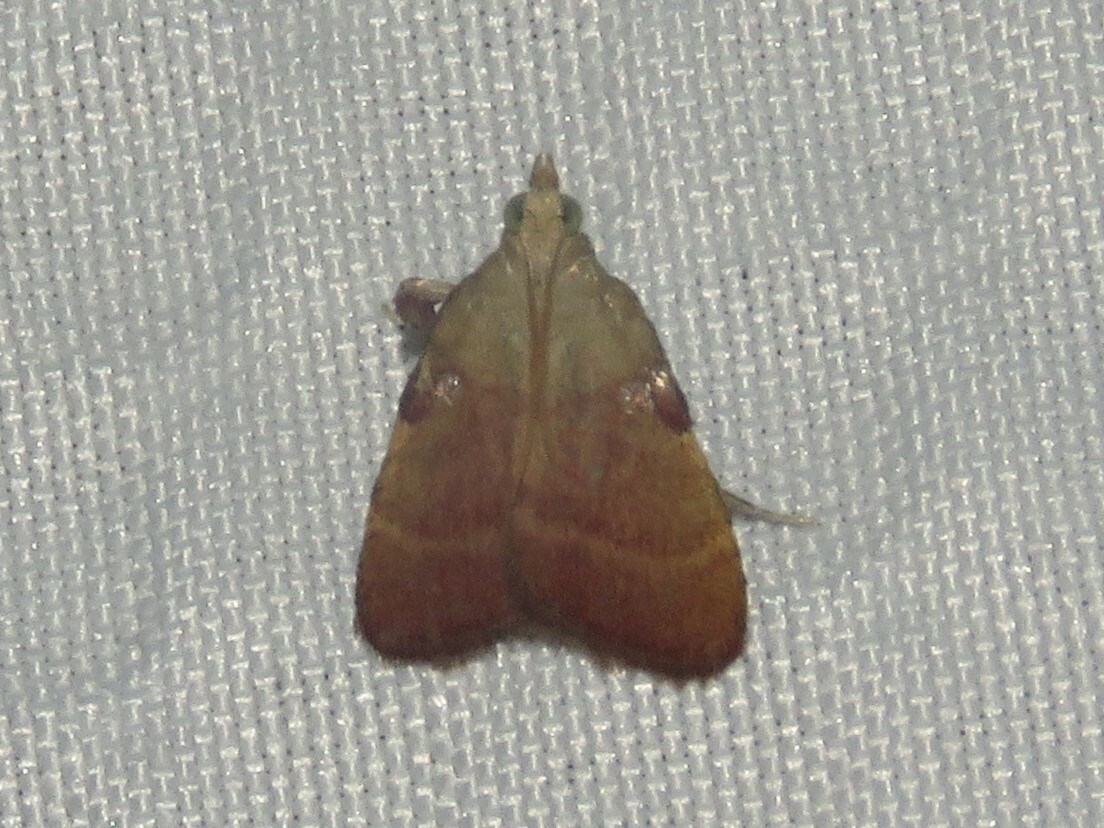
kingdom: Animalia
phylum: Arthropoda
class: Insecta
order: Lepidoptera
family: Pyralidae
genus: Condylolomia
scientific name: Condylolomia participialis
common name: Drab condylolomia moth
